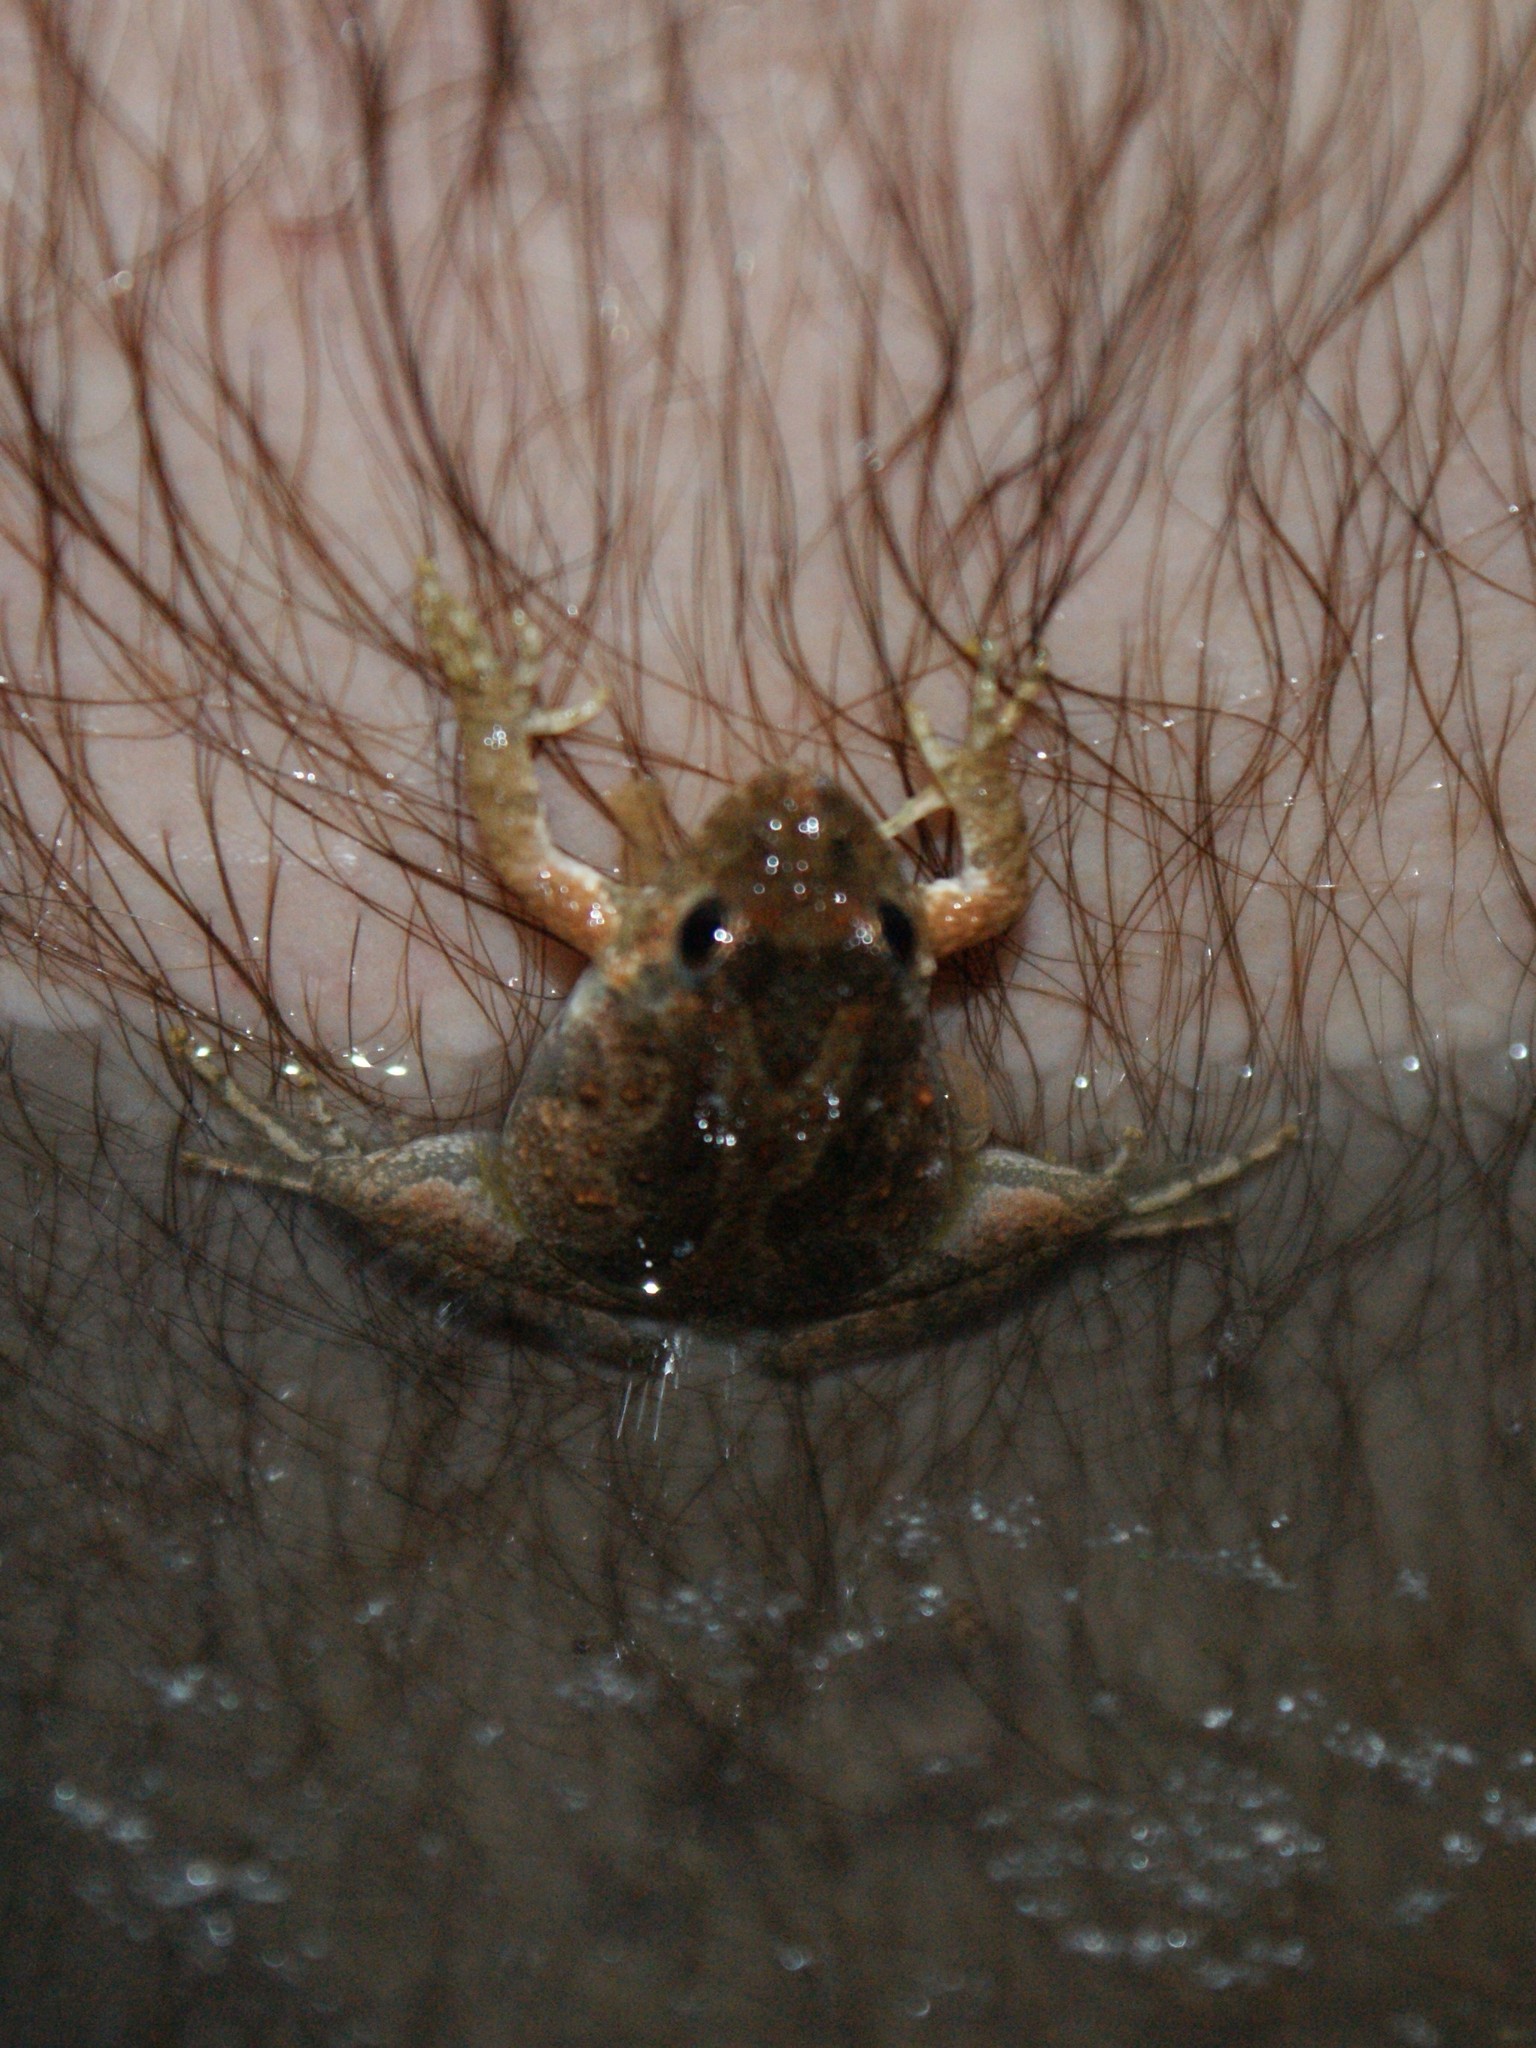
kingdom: Animalia
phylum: Chordata
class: Amphibia
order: Anura
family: Hylidae
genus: Acris
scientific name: Acris crepitans
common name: Northern cricket frog
